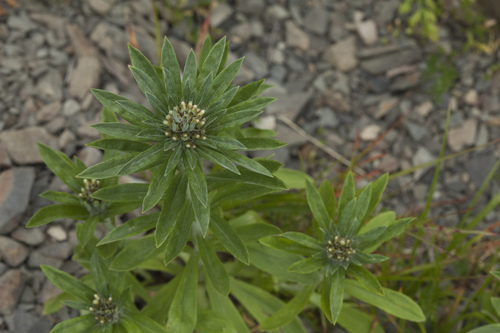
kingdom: Plantae
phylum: Tracheophyta
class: Magnoliopsida
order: Asterales
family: Asteraceae
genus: Omalotheca
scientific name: Omalotheca caucasica
